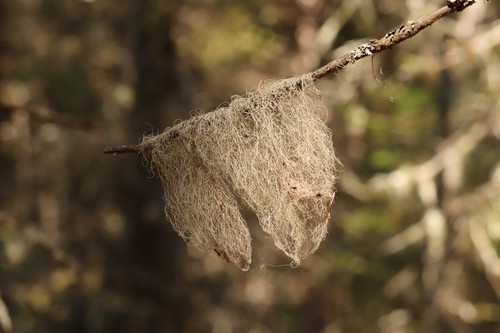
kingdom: Fungi
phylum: Ascomycota
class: Lecanoromycetes
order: Lecanorales
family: Parmeliaceae
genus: Bryoria
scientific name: Bryoria
